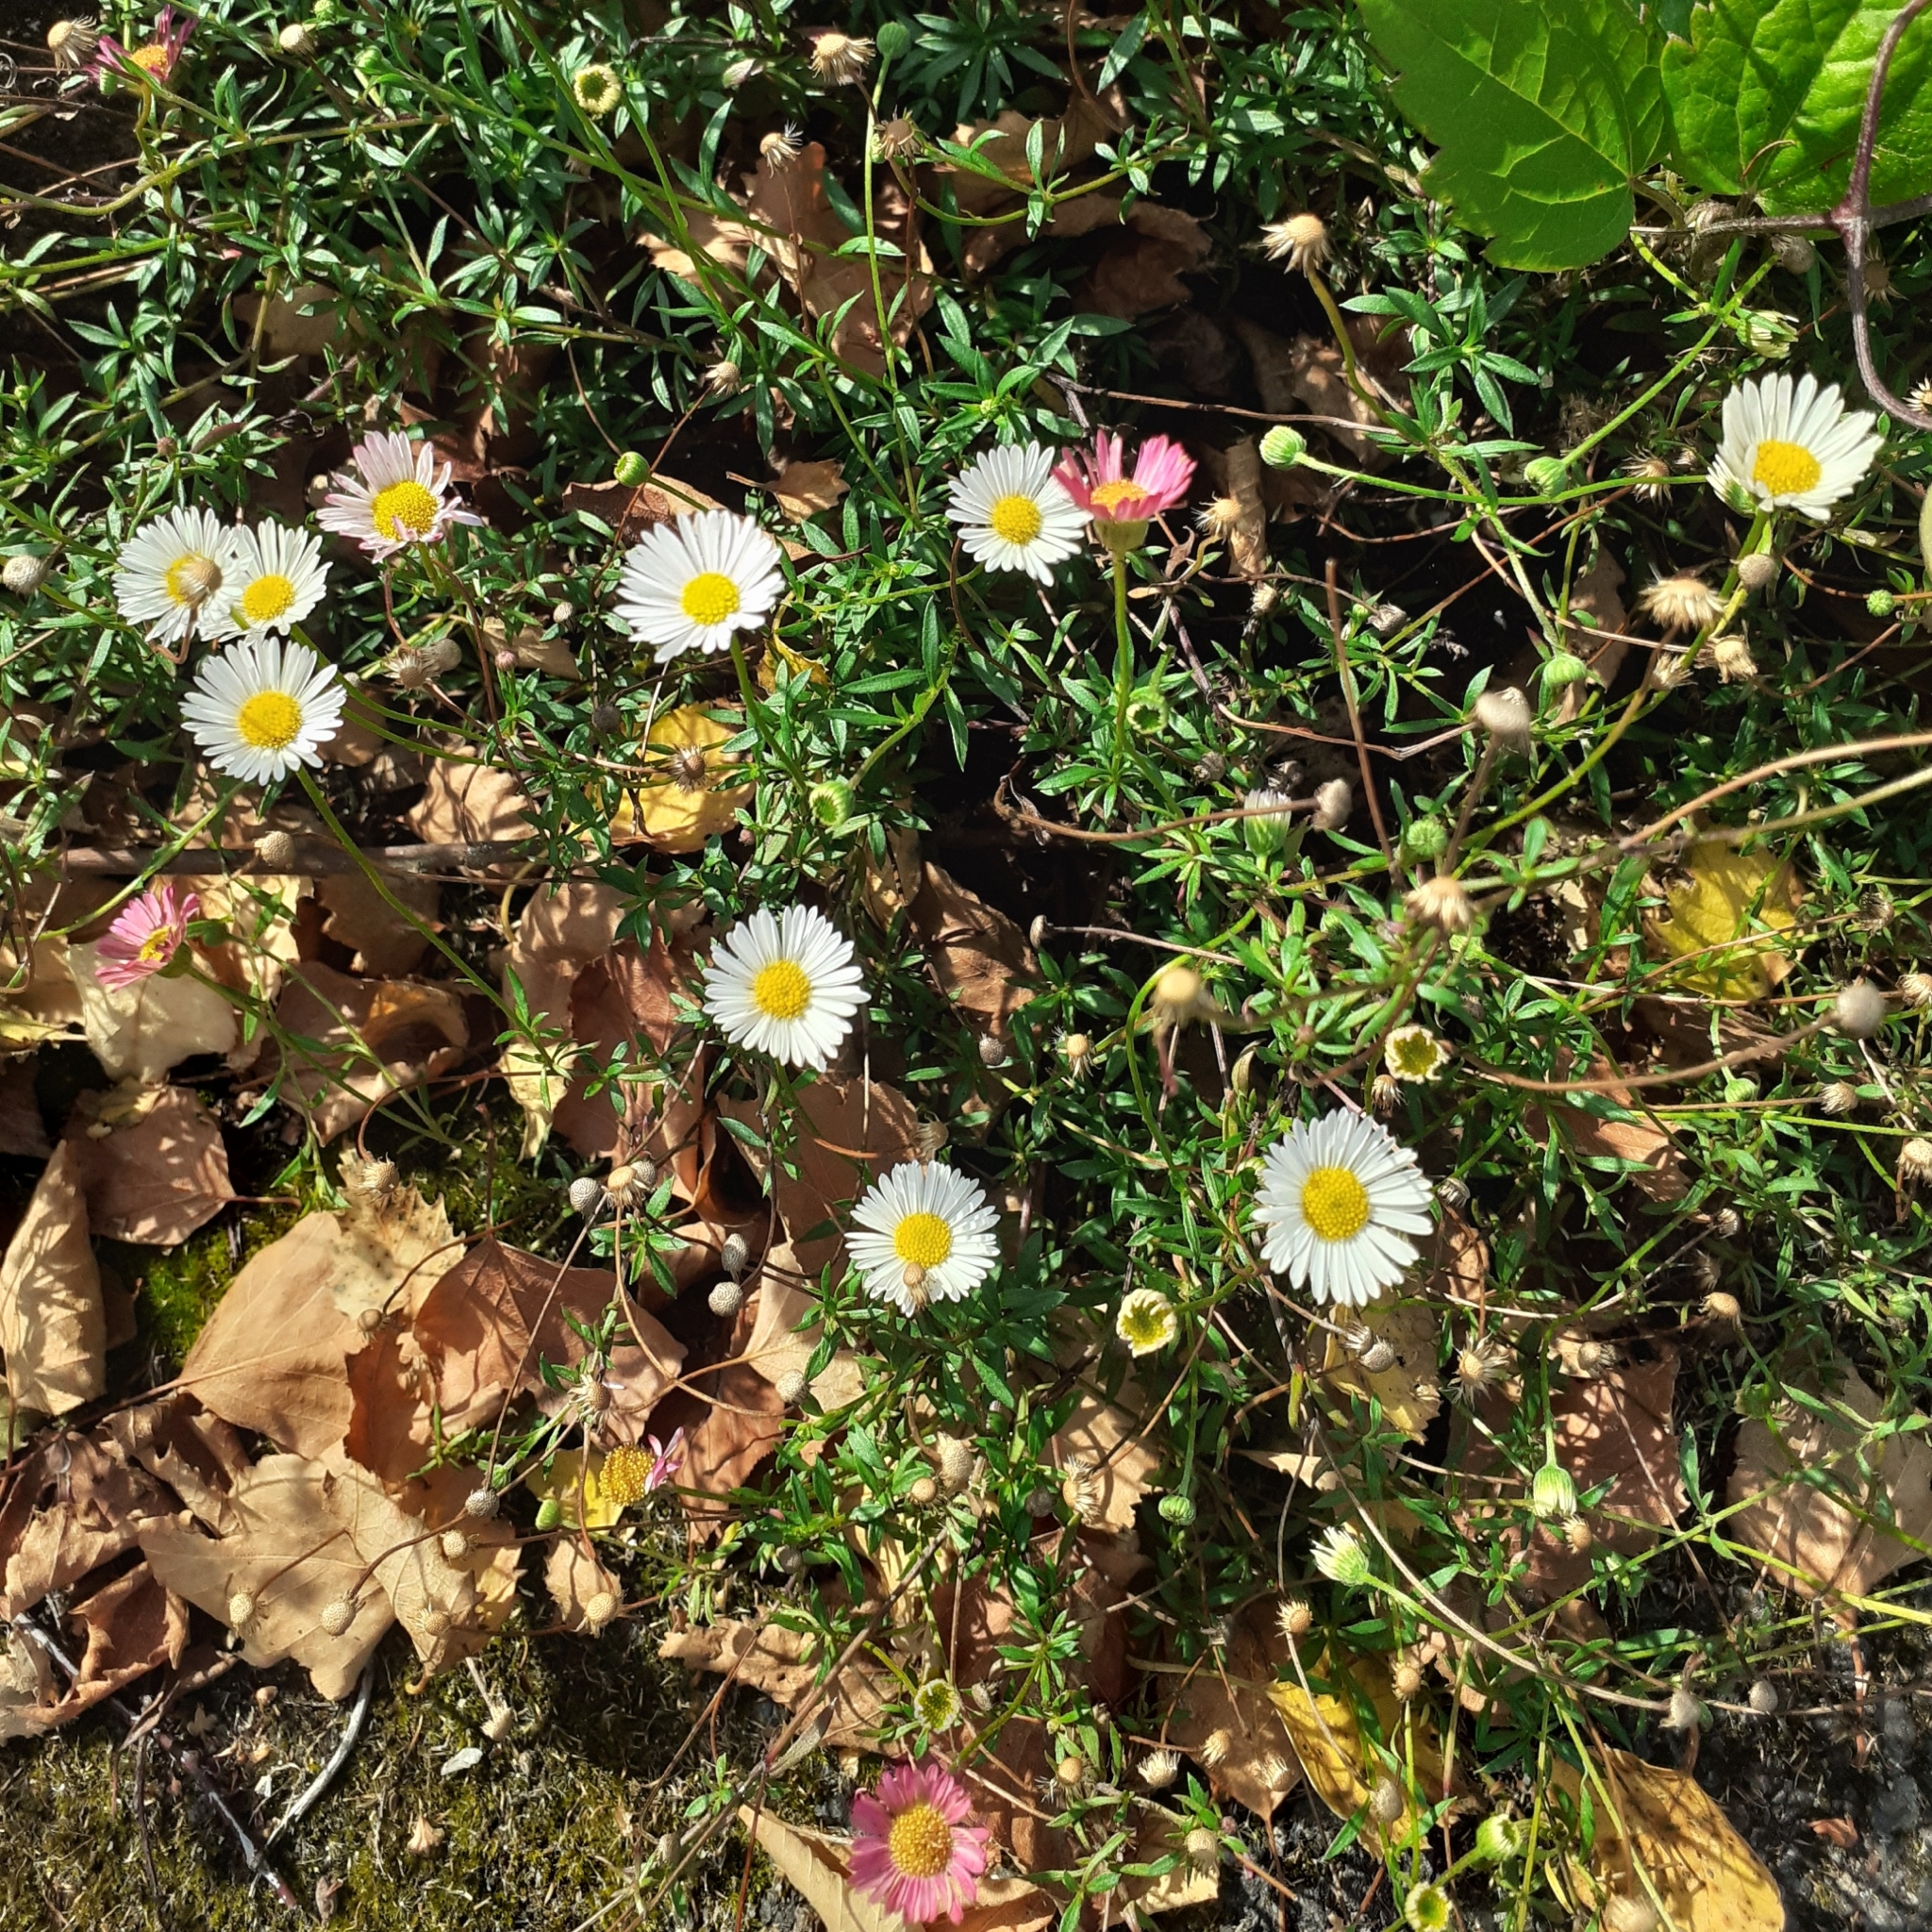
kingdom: Plantae
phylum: Tracheophyta
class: Magnoliopsida
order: Asterales
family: Asteraceae
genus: Erigeron
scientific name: Erigeron karvinskianus
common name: Mexican fleabane
